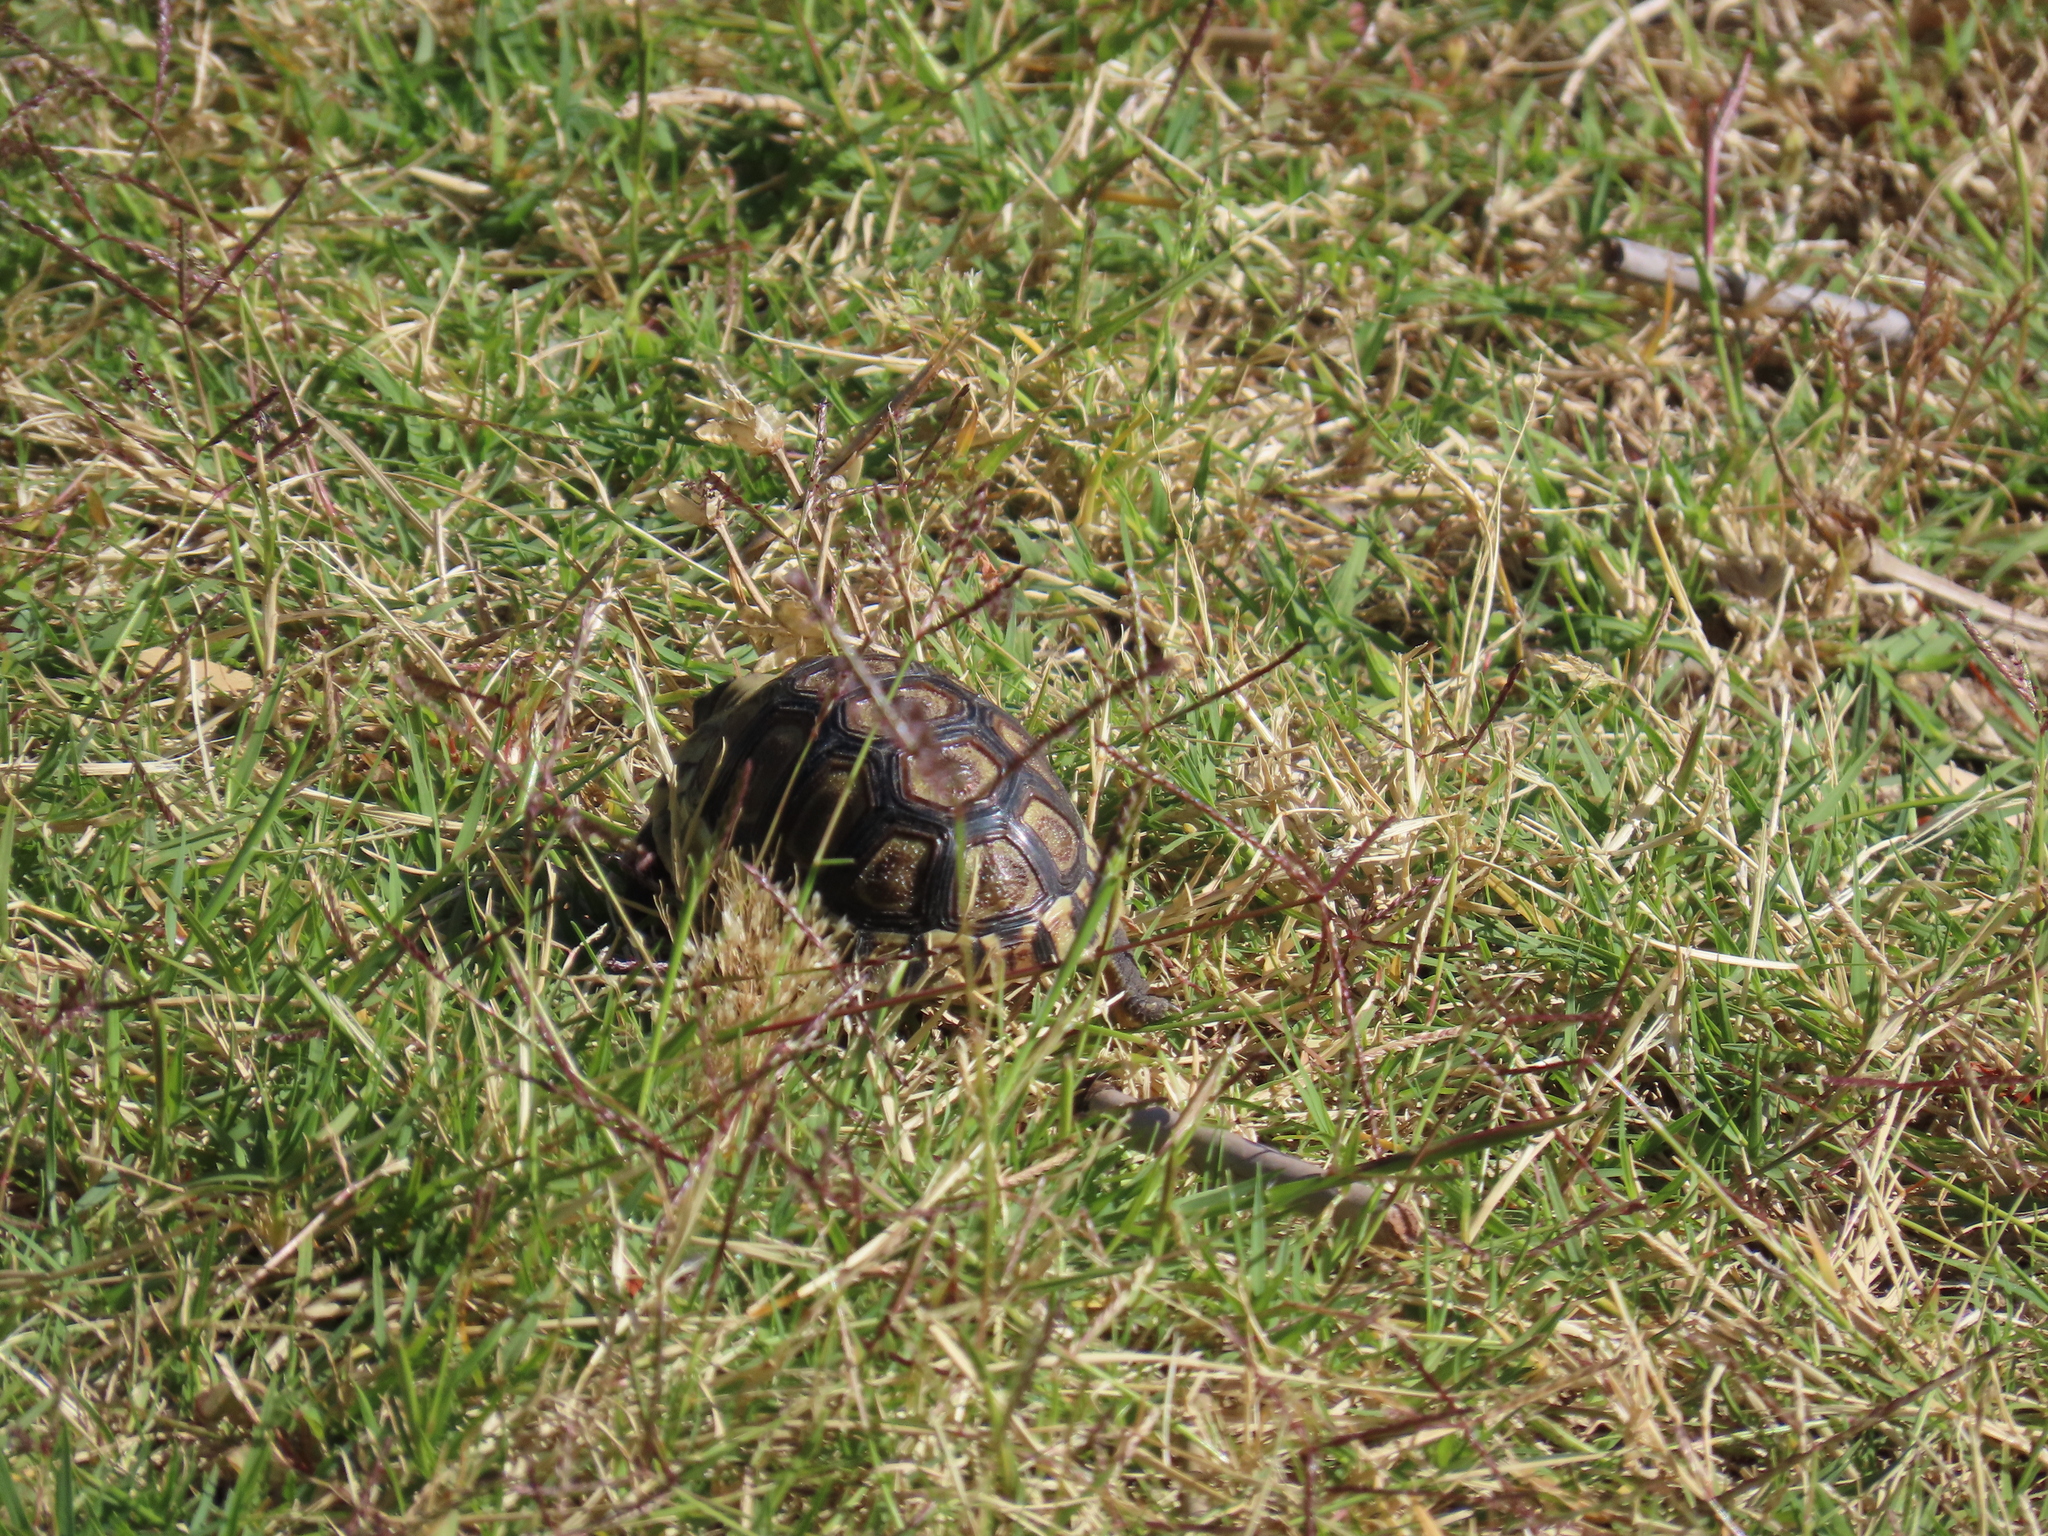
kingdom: Animalia
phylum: Chordata
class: Testudines
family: Testudinidae
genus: Chersina
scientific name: Chersina angulata
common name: South african bowsprit tortoise
